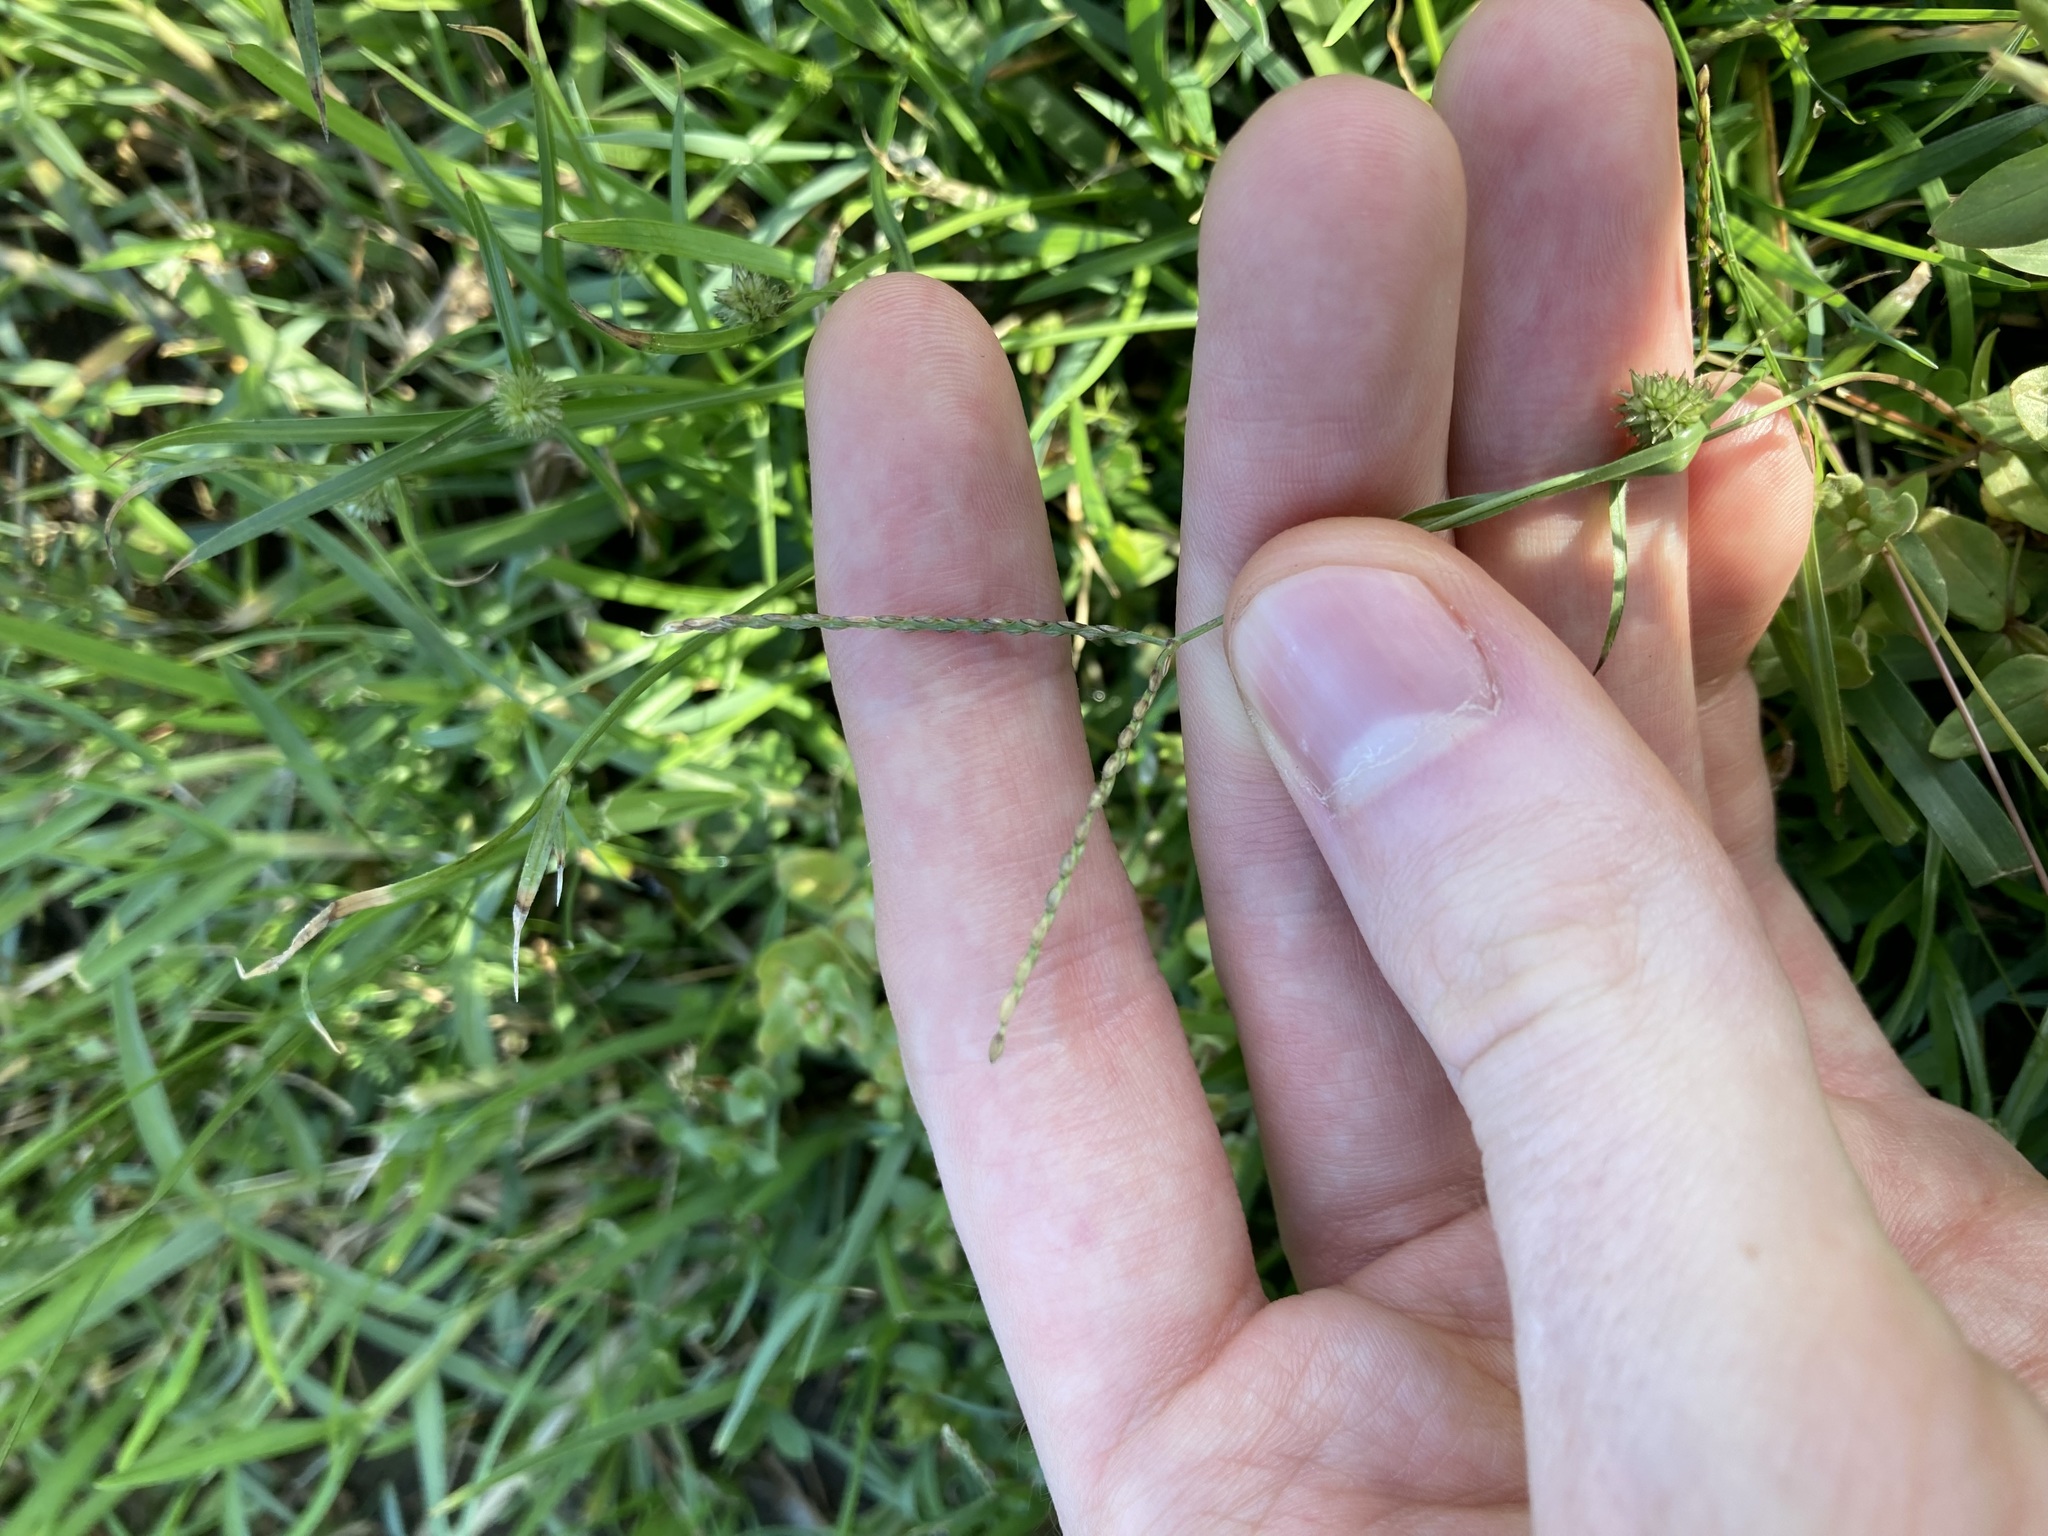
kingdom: Plantae
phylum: Tracheophyta
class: Liliopsida
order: Poales
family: Poaceae
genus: Axonopus
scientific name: Axonopus fissifolius
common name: Common carpetgrass
